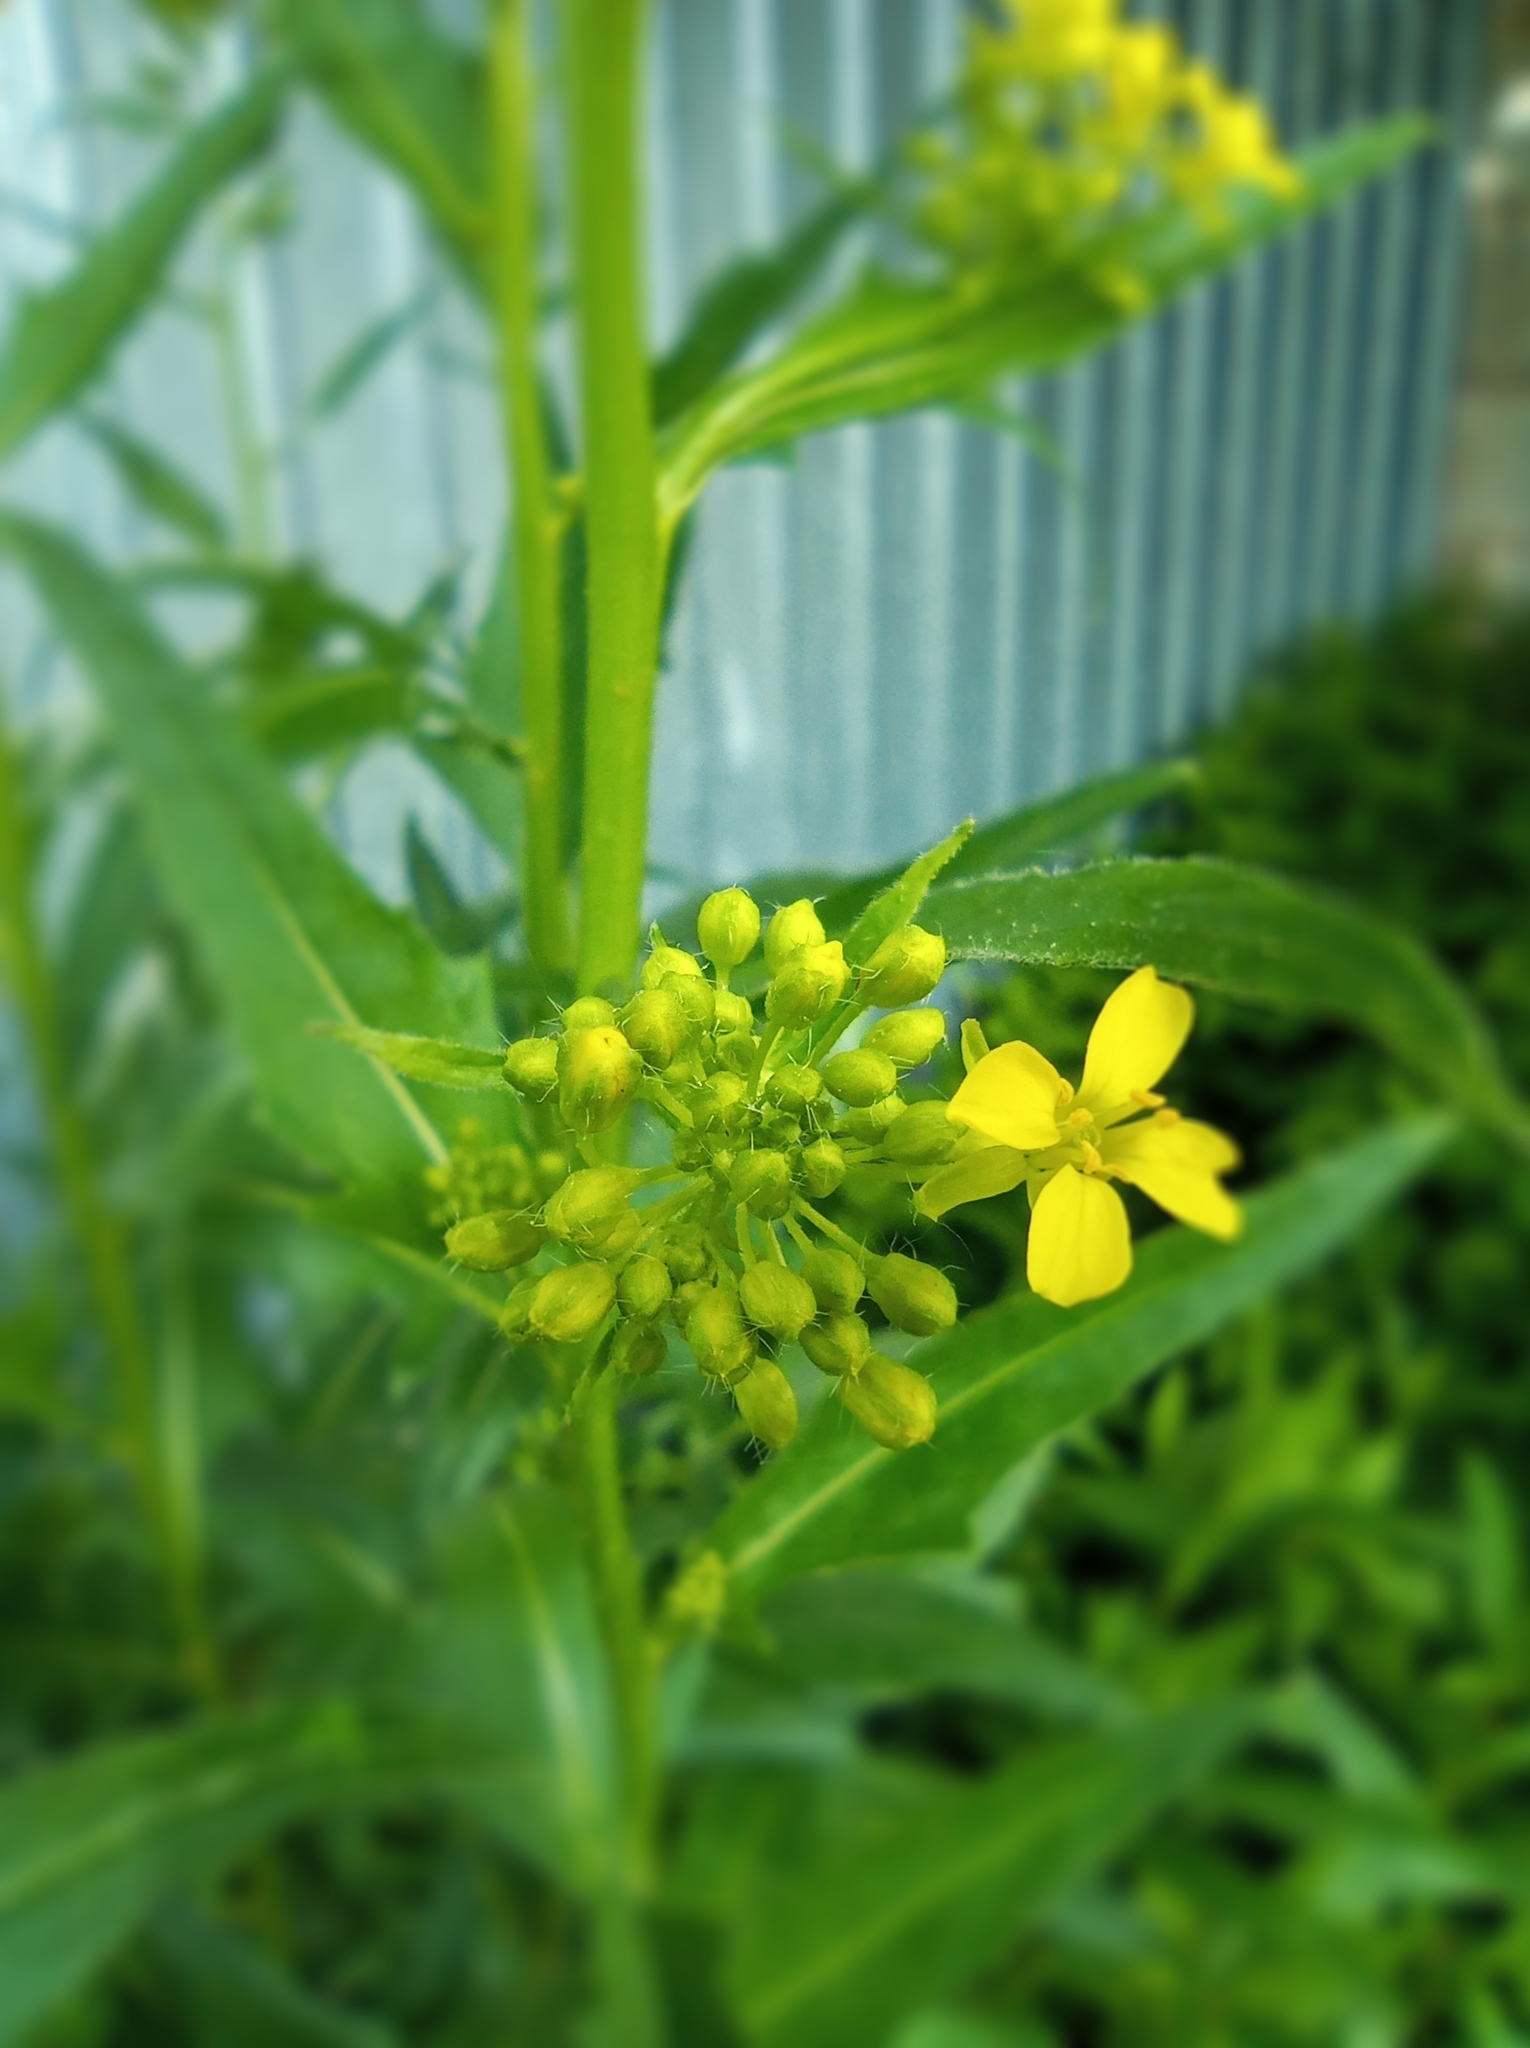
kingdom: Plantae
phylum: Tracheophyta
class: Magnoliopsida
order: Brassicales
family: Brassicaceae
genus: Bunias
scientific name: Bunias orientalis
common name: Warty-cabbage
